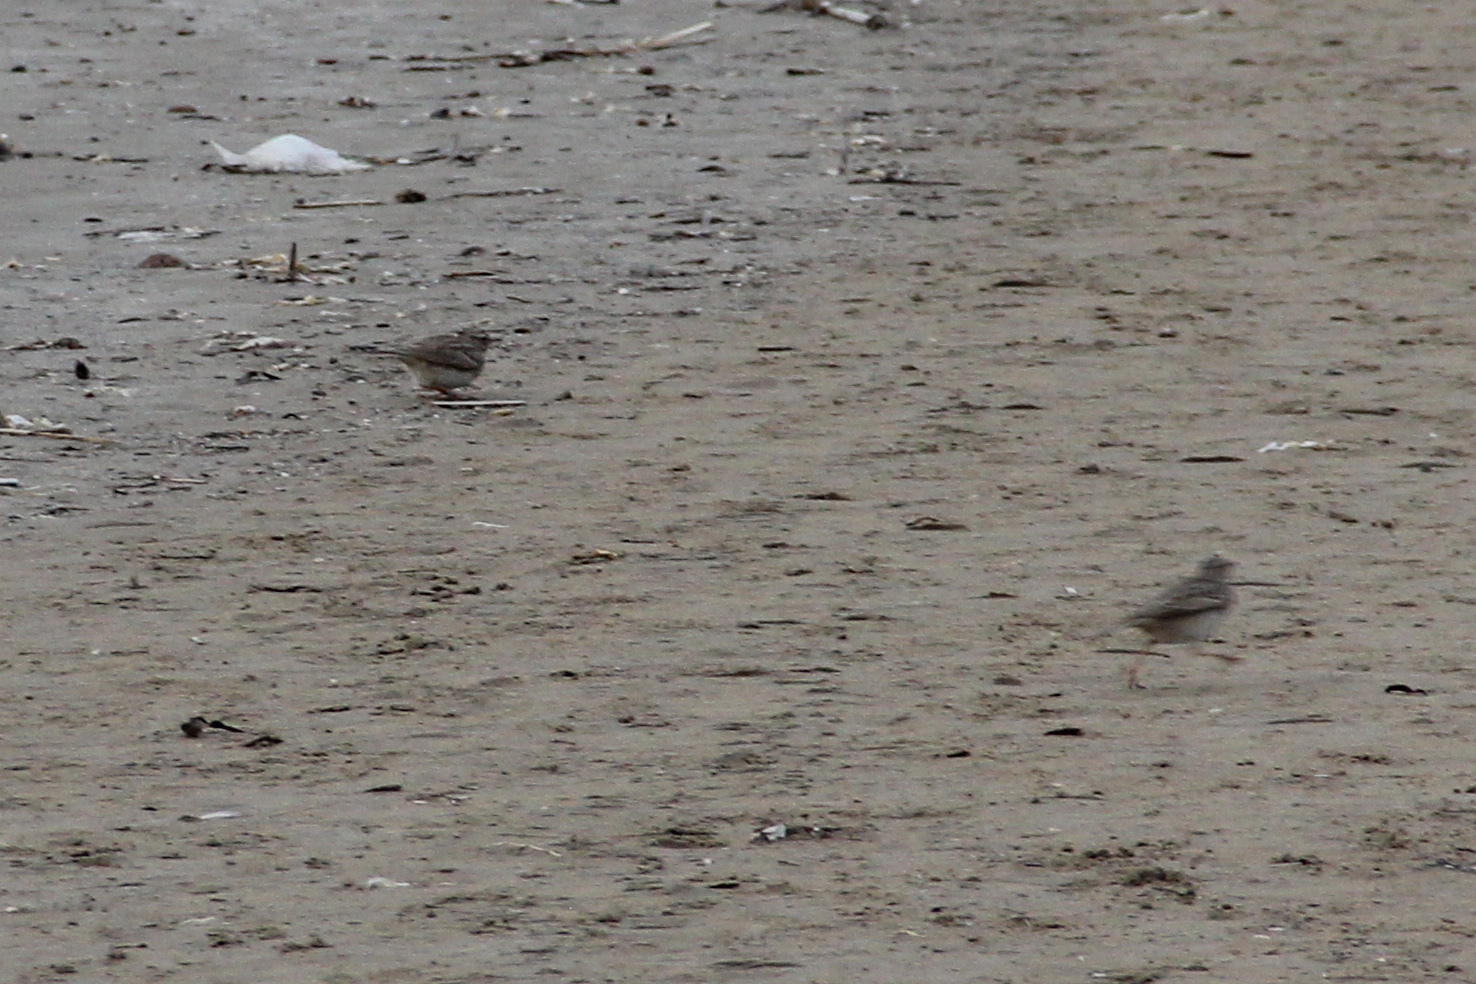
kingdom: Animalia
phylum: Chordata
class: Aves
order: Passeriformes
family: Alaudidae
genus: Galerida
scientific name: Galerida cristata
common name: Crested lark
